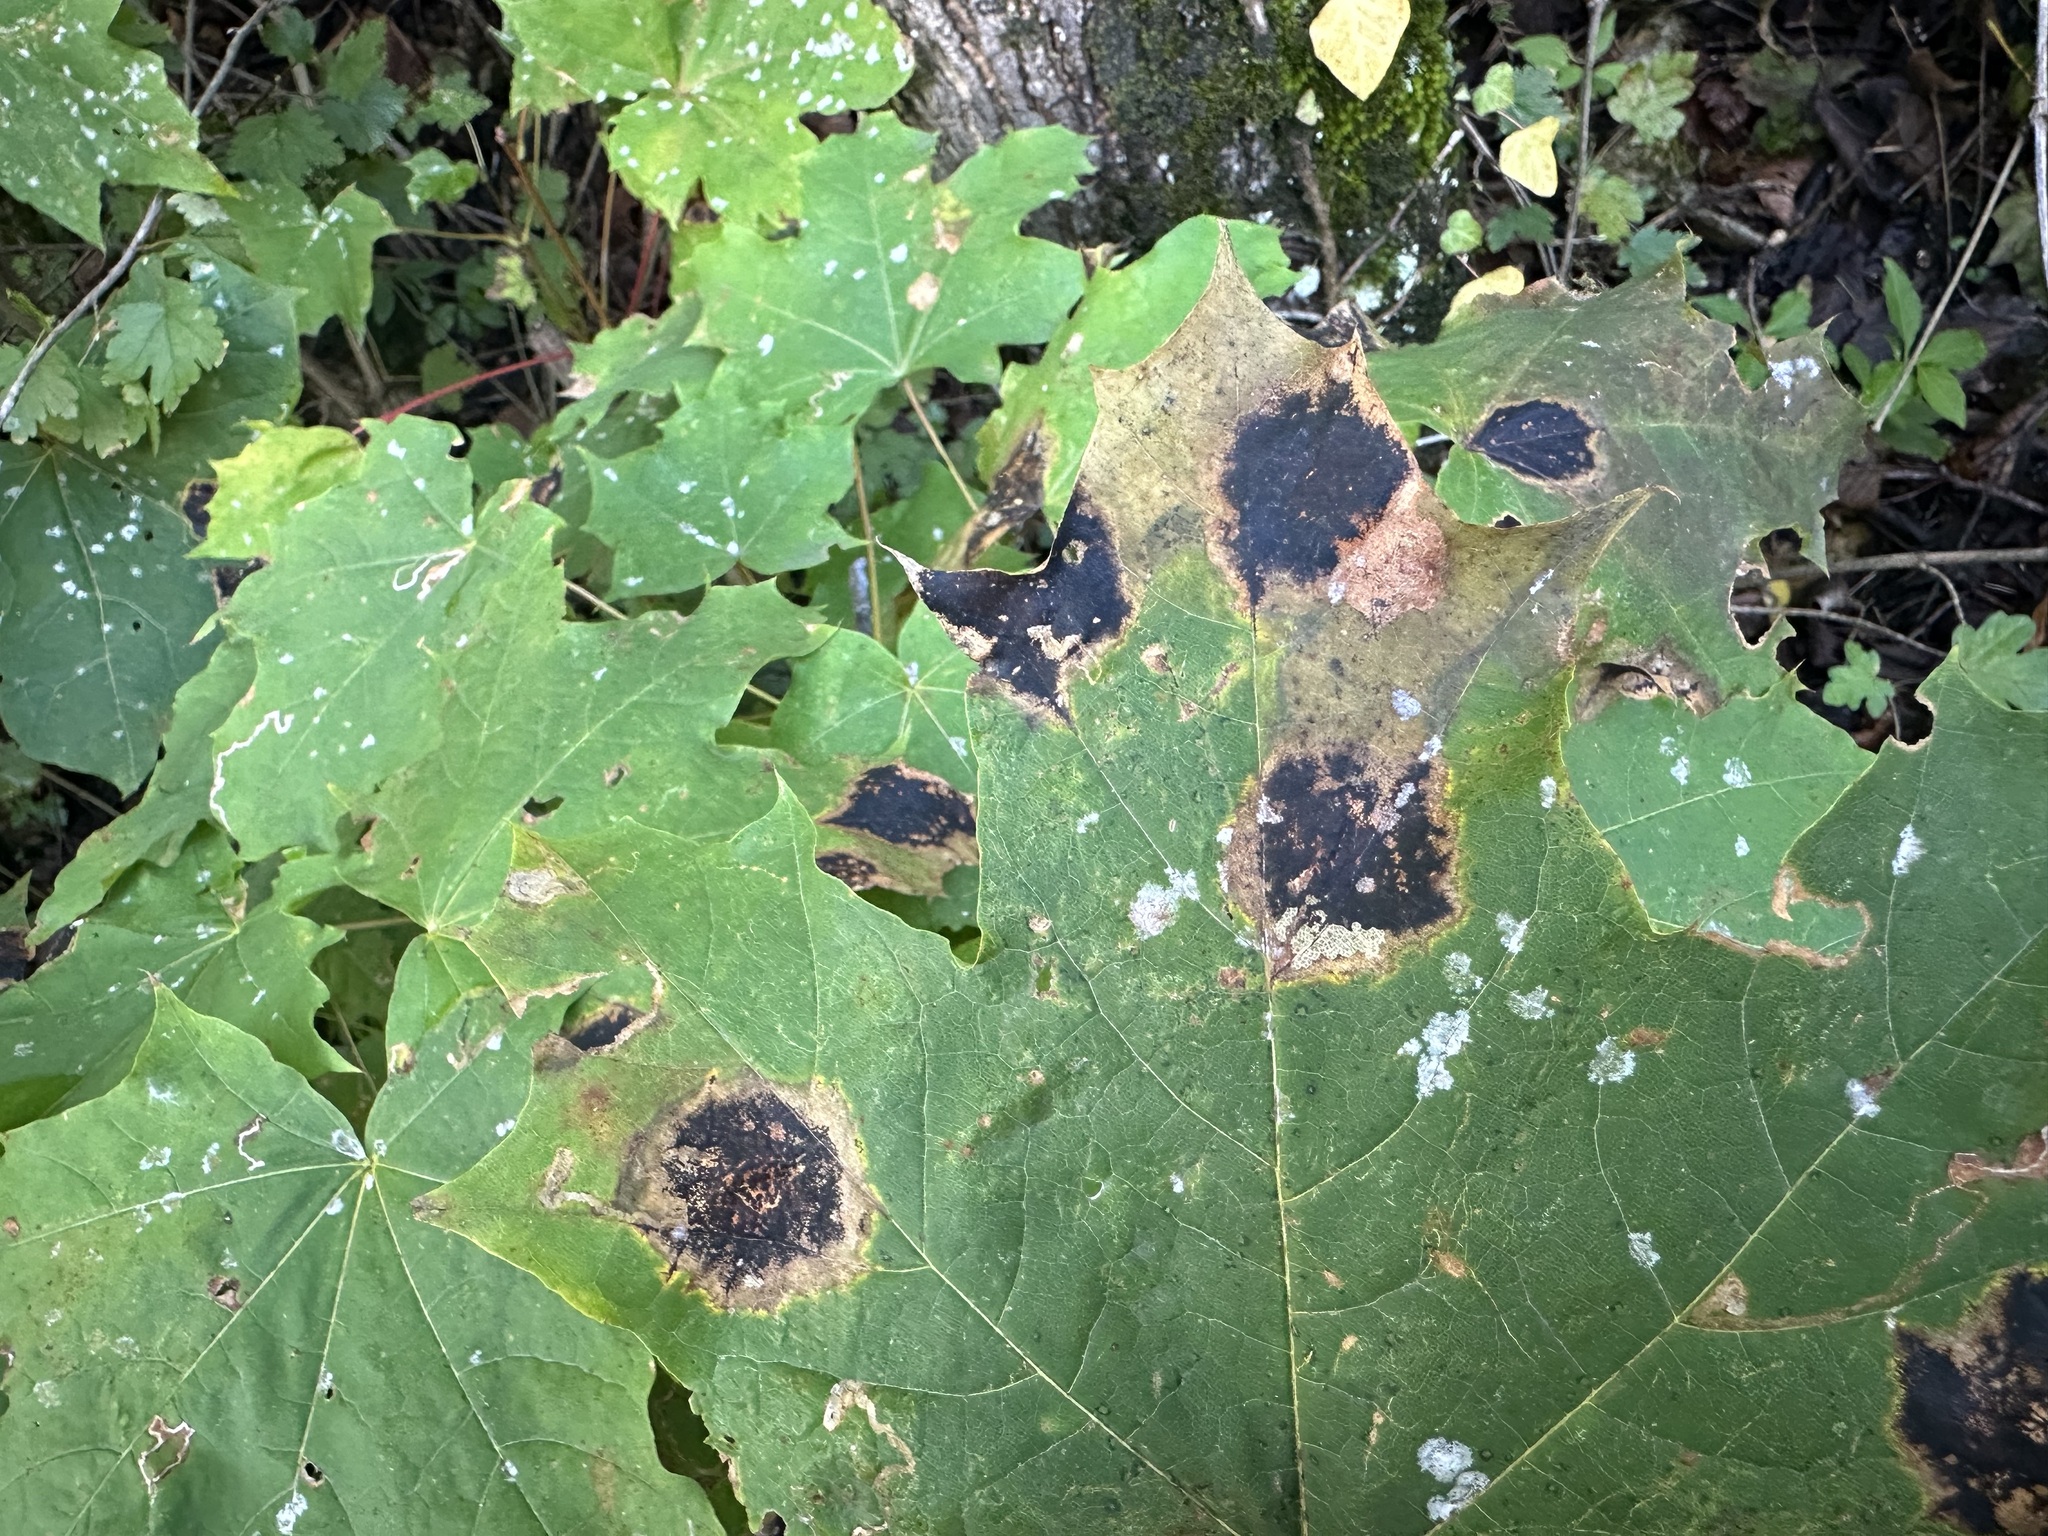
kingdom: Fungi
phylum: Ascomycota
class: Leotiomycetes
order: Rhytismatales
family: Rhytismataceae
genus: Rhytisma
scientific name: Rhytisma acerinum
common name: European tar spot
